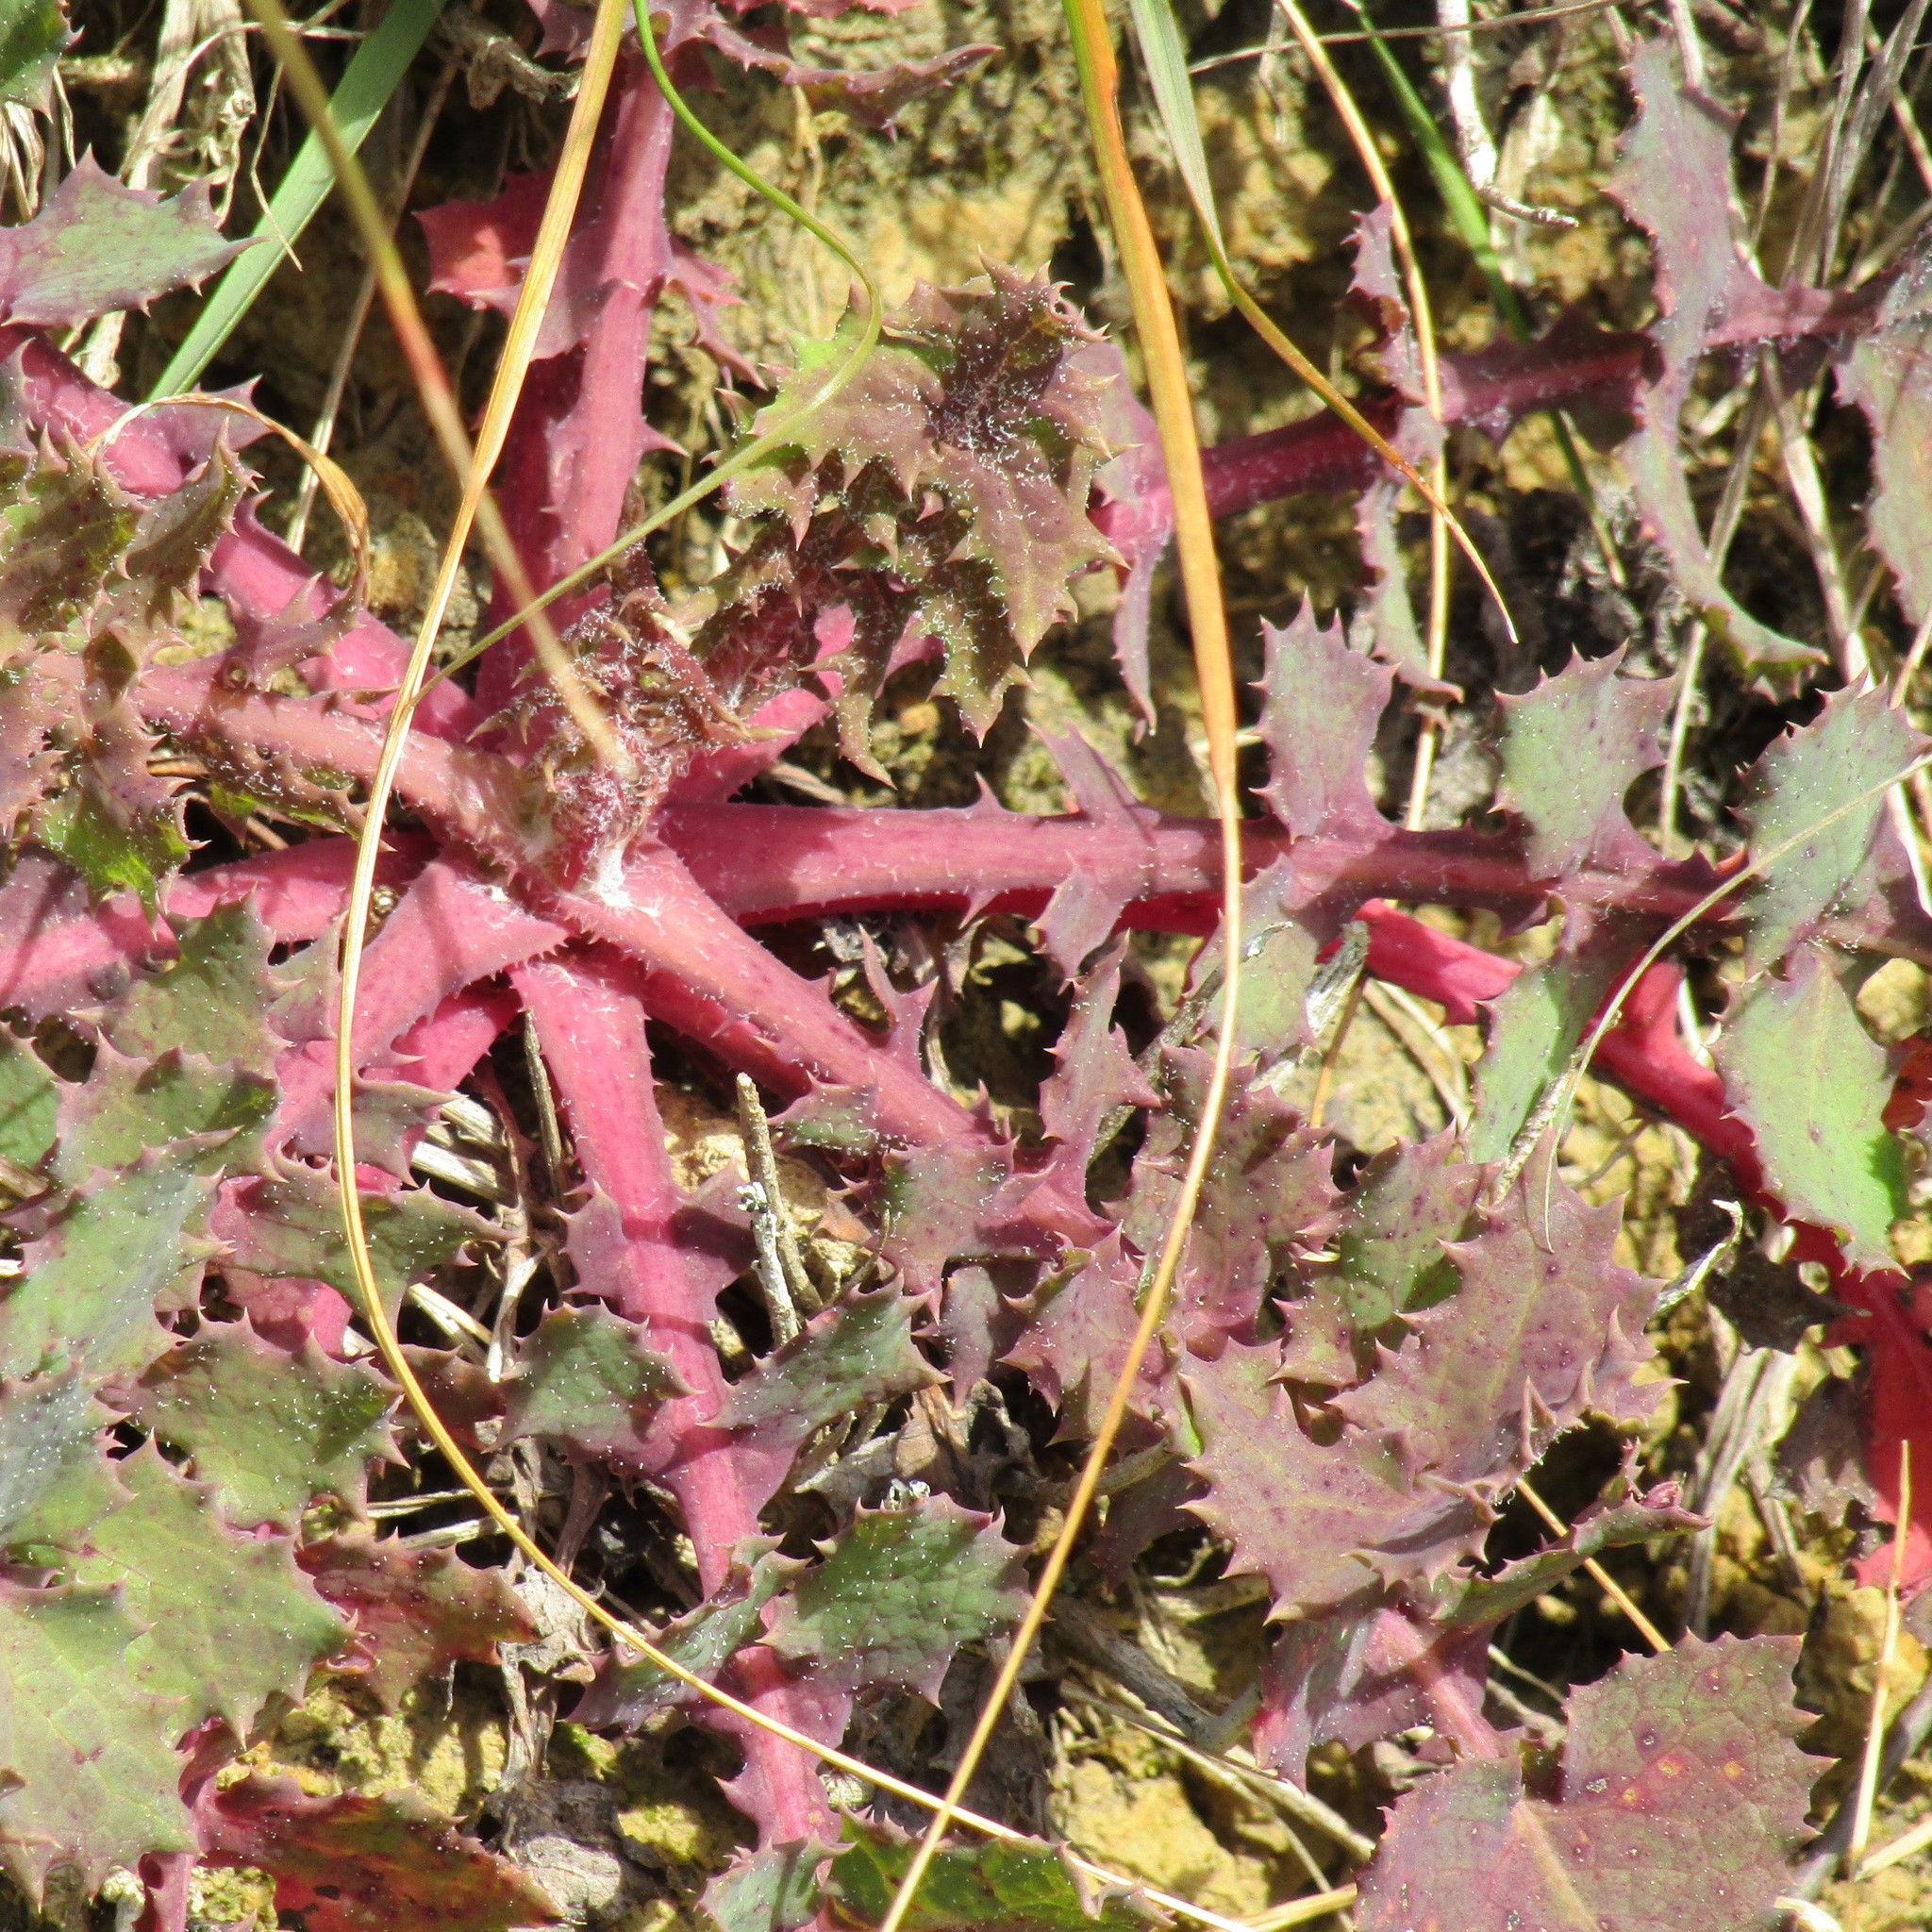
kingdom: Plantae
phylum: Tracheophyta
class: Magnoliopsida
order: Asterales
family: Asteraceae
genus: Sonchus
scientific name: Sonchus oleraceus
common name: Common sowthistle
